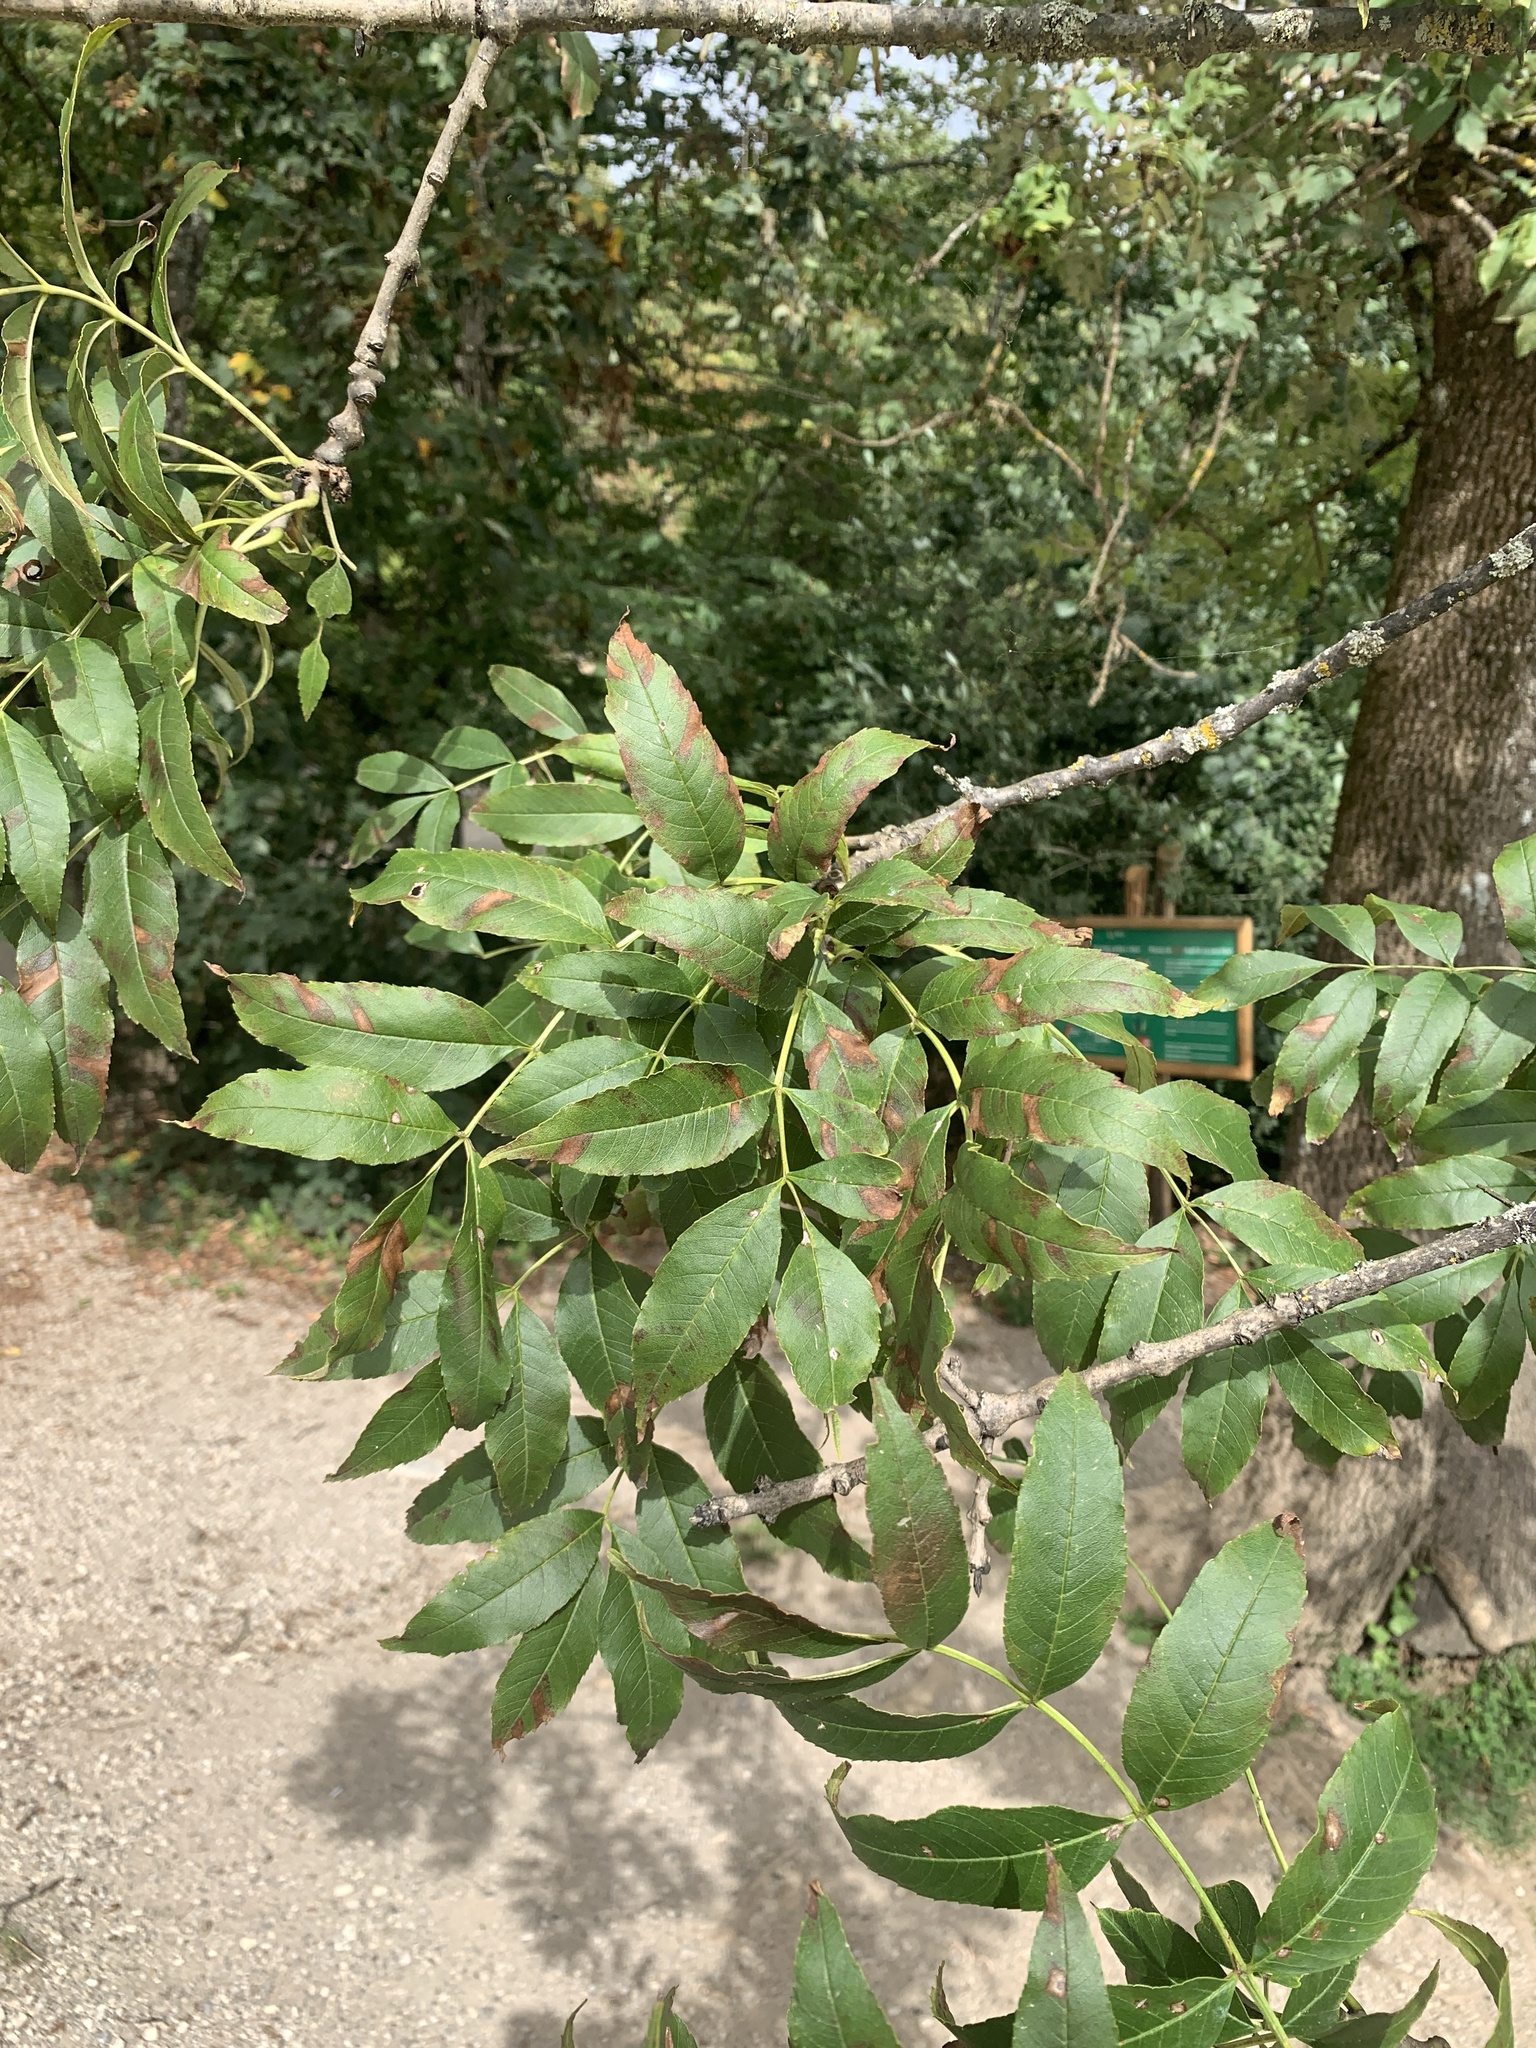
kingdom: Plantae
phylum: Tracheophyta
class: Magnoliopsida
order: Lamiales
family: Oleaceae
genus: Fraxinus
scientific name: Fraxinus excelsior
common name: European ash
